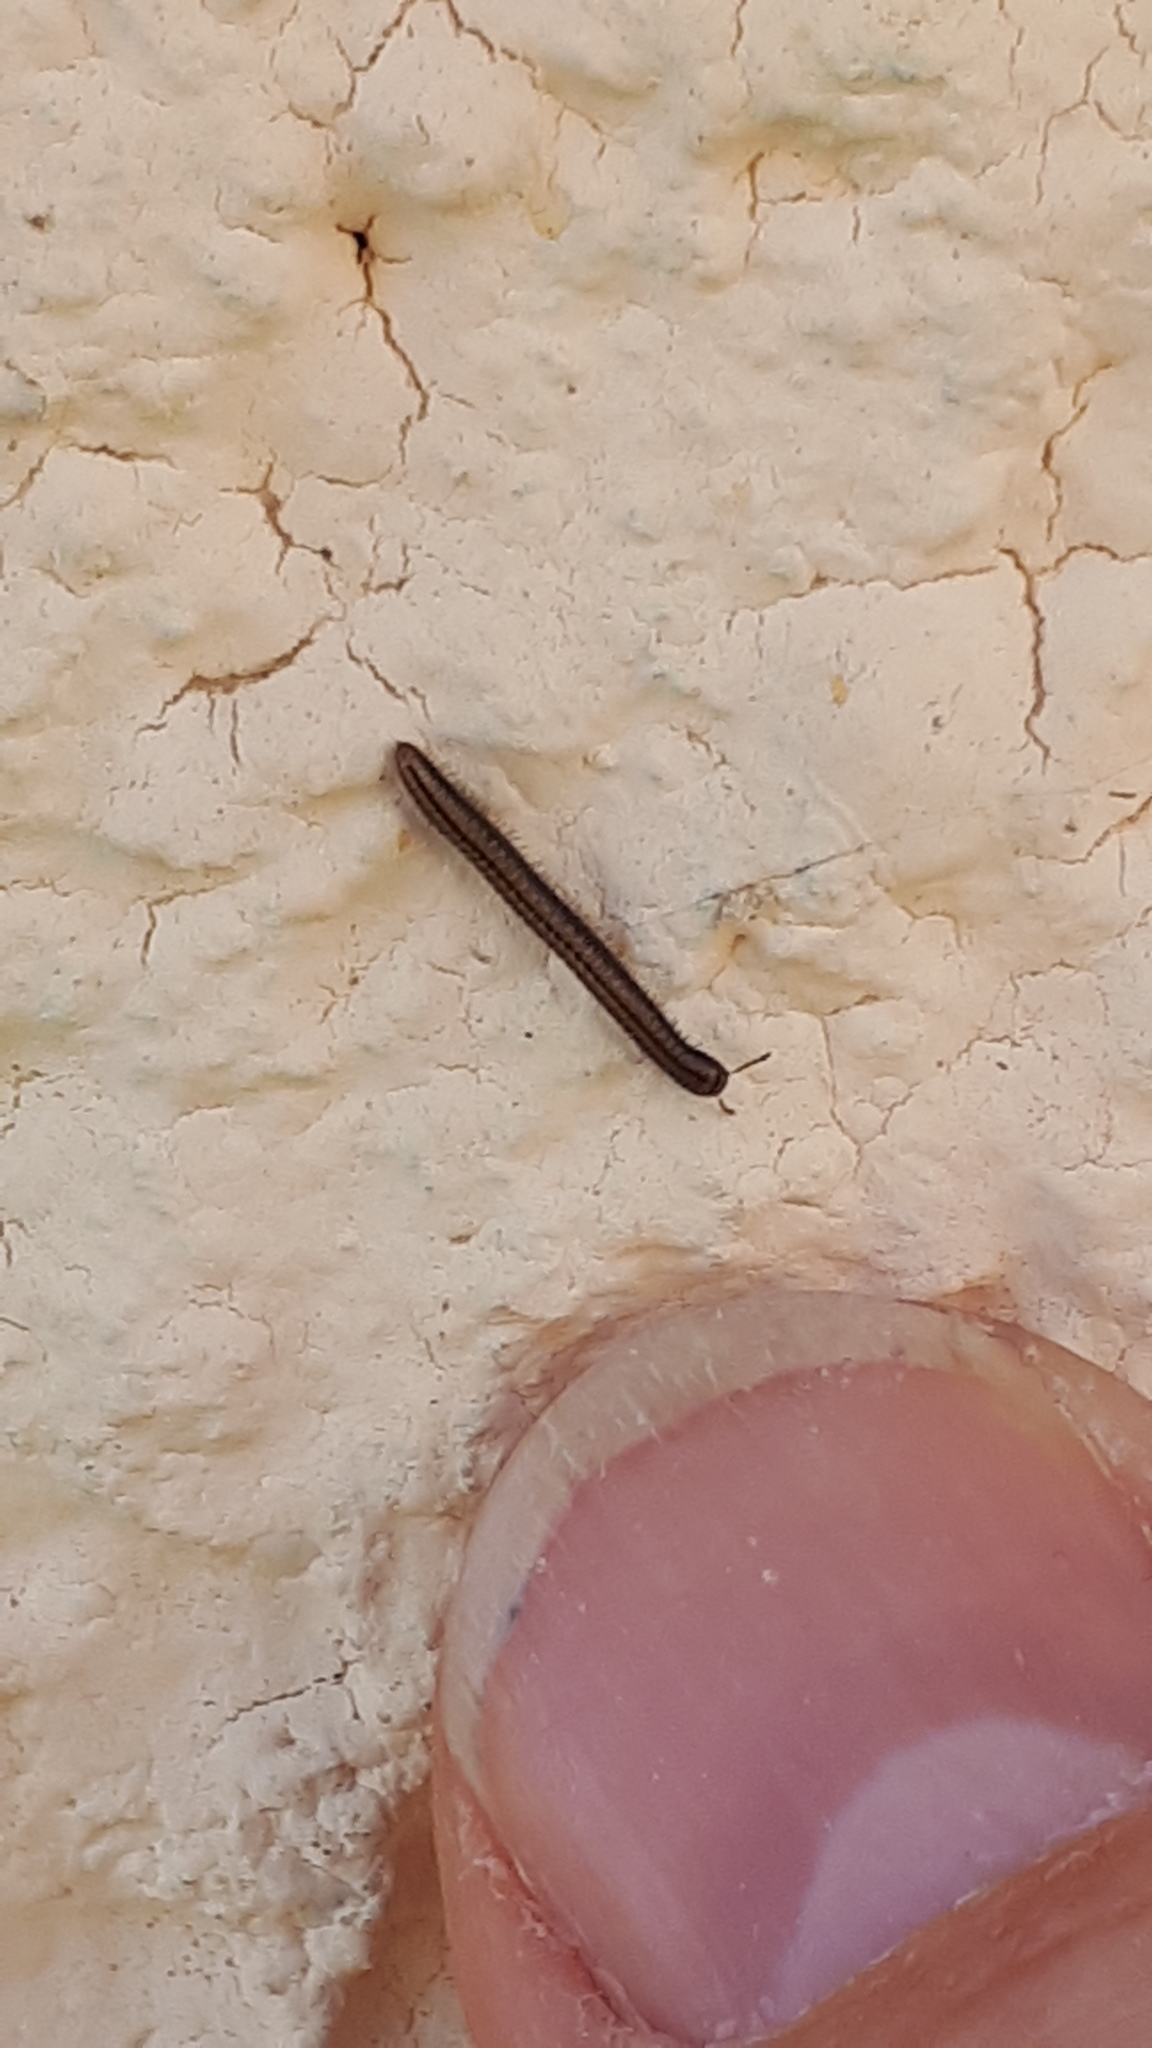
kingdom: Animalia
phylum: Arthropoda
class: Diplopoda
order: Julida
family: Julidae
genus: Brachyiulus
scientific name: Brachyiulus pusillus
